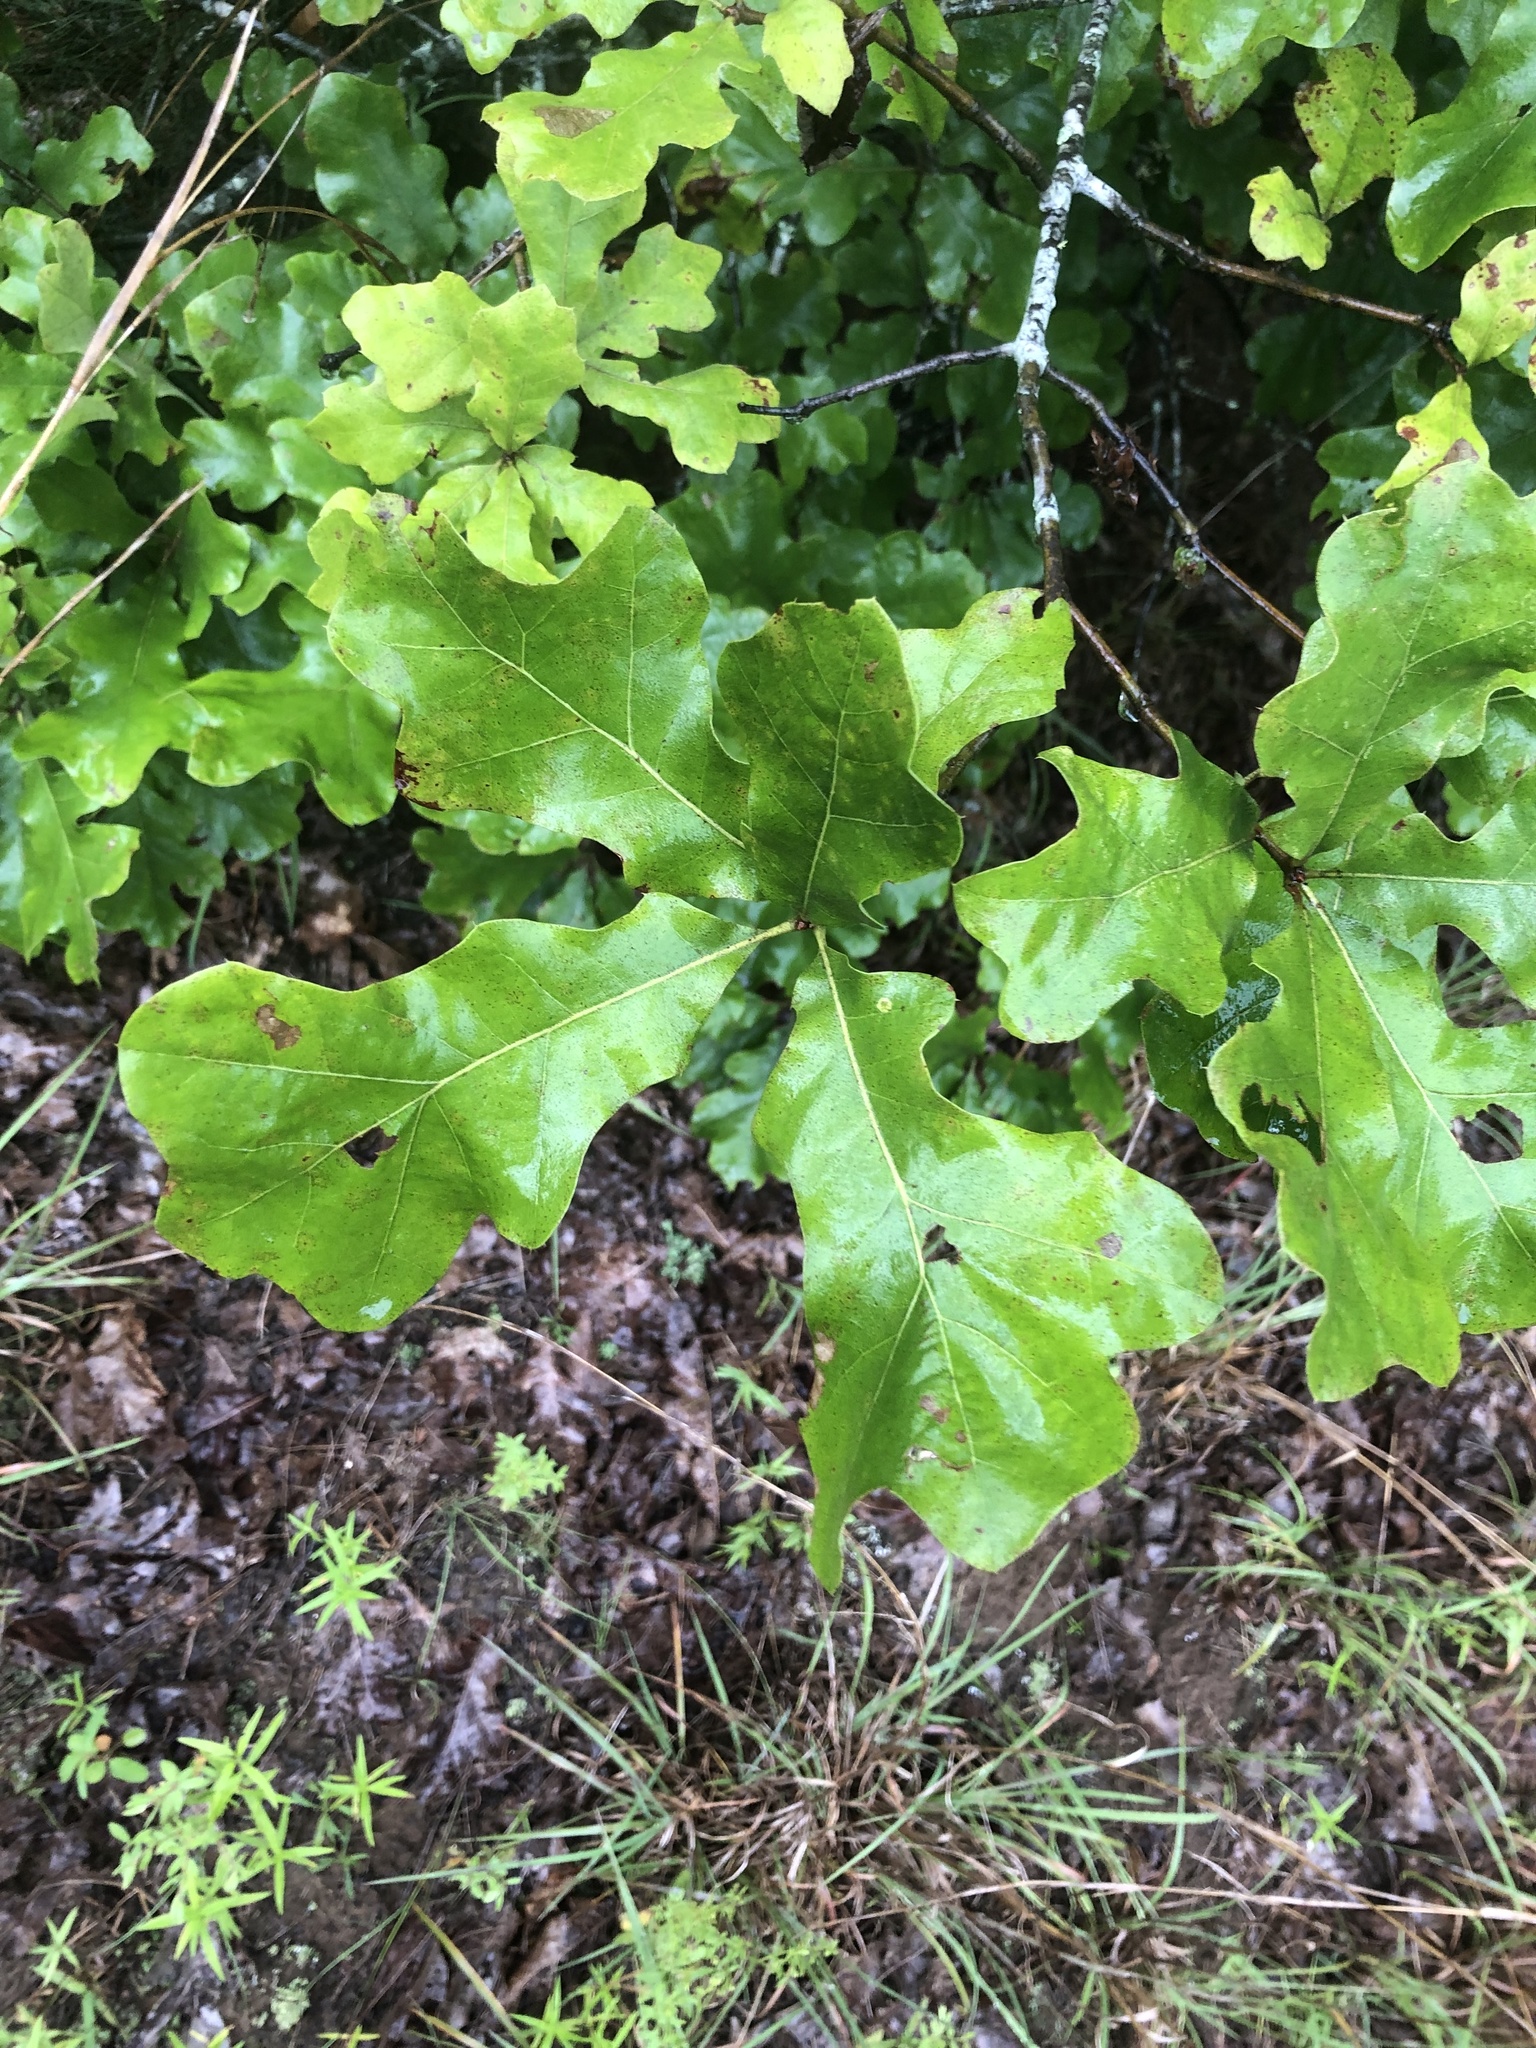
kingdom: Plantae
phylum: Tracheophyta
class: Magnoliopsida
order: Fagales
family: Fagaceae
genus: Quercus
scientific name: Quercus velutina
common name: Black oak
